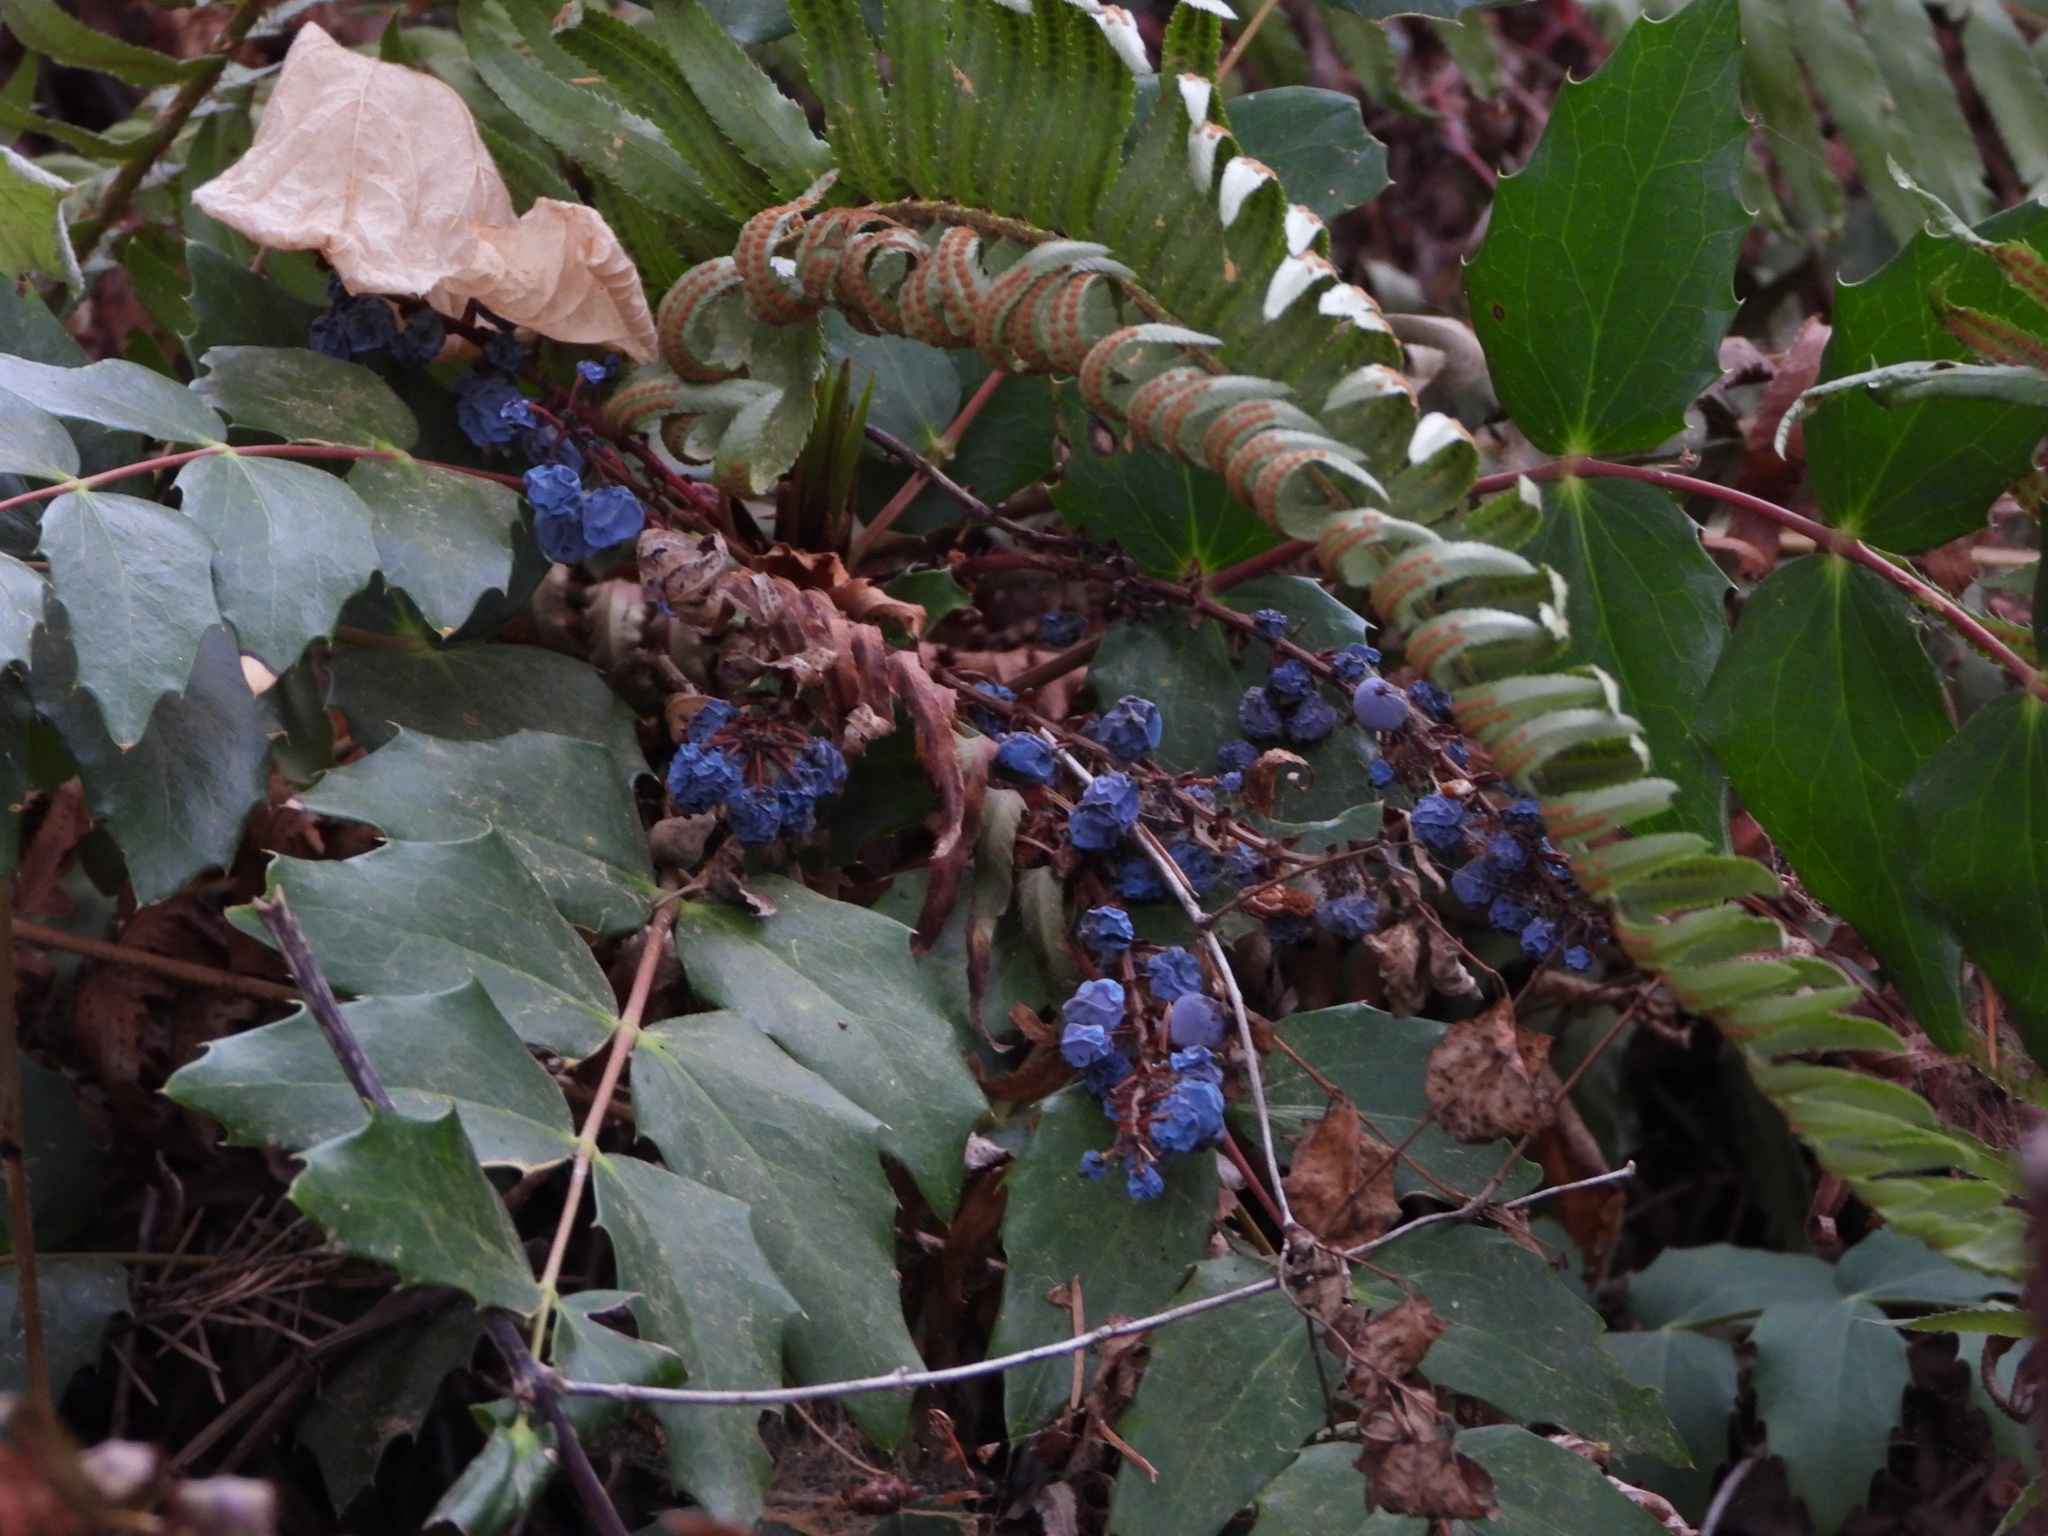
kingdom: Plantae
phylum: Tracheophyta
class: Magnoliopsida
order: Ranunculales
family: Berberidaceae
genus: Mahonia
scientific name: Mahonia nervosa
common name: Cascade oregon-grape
